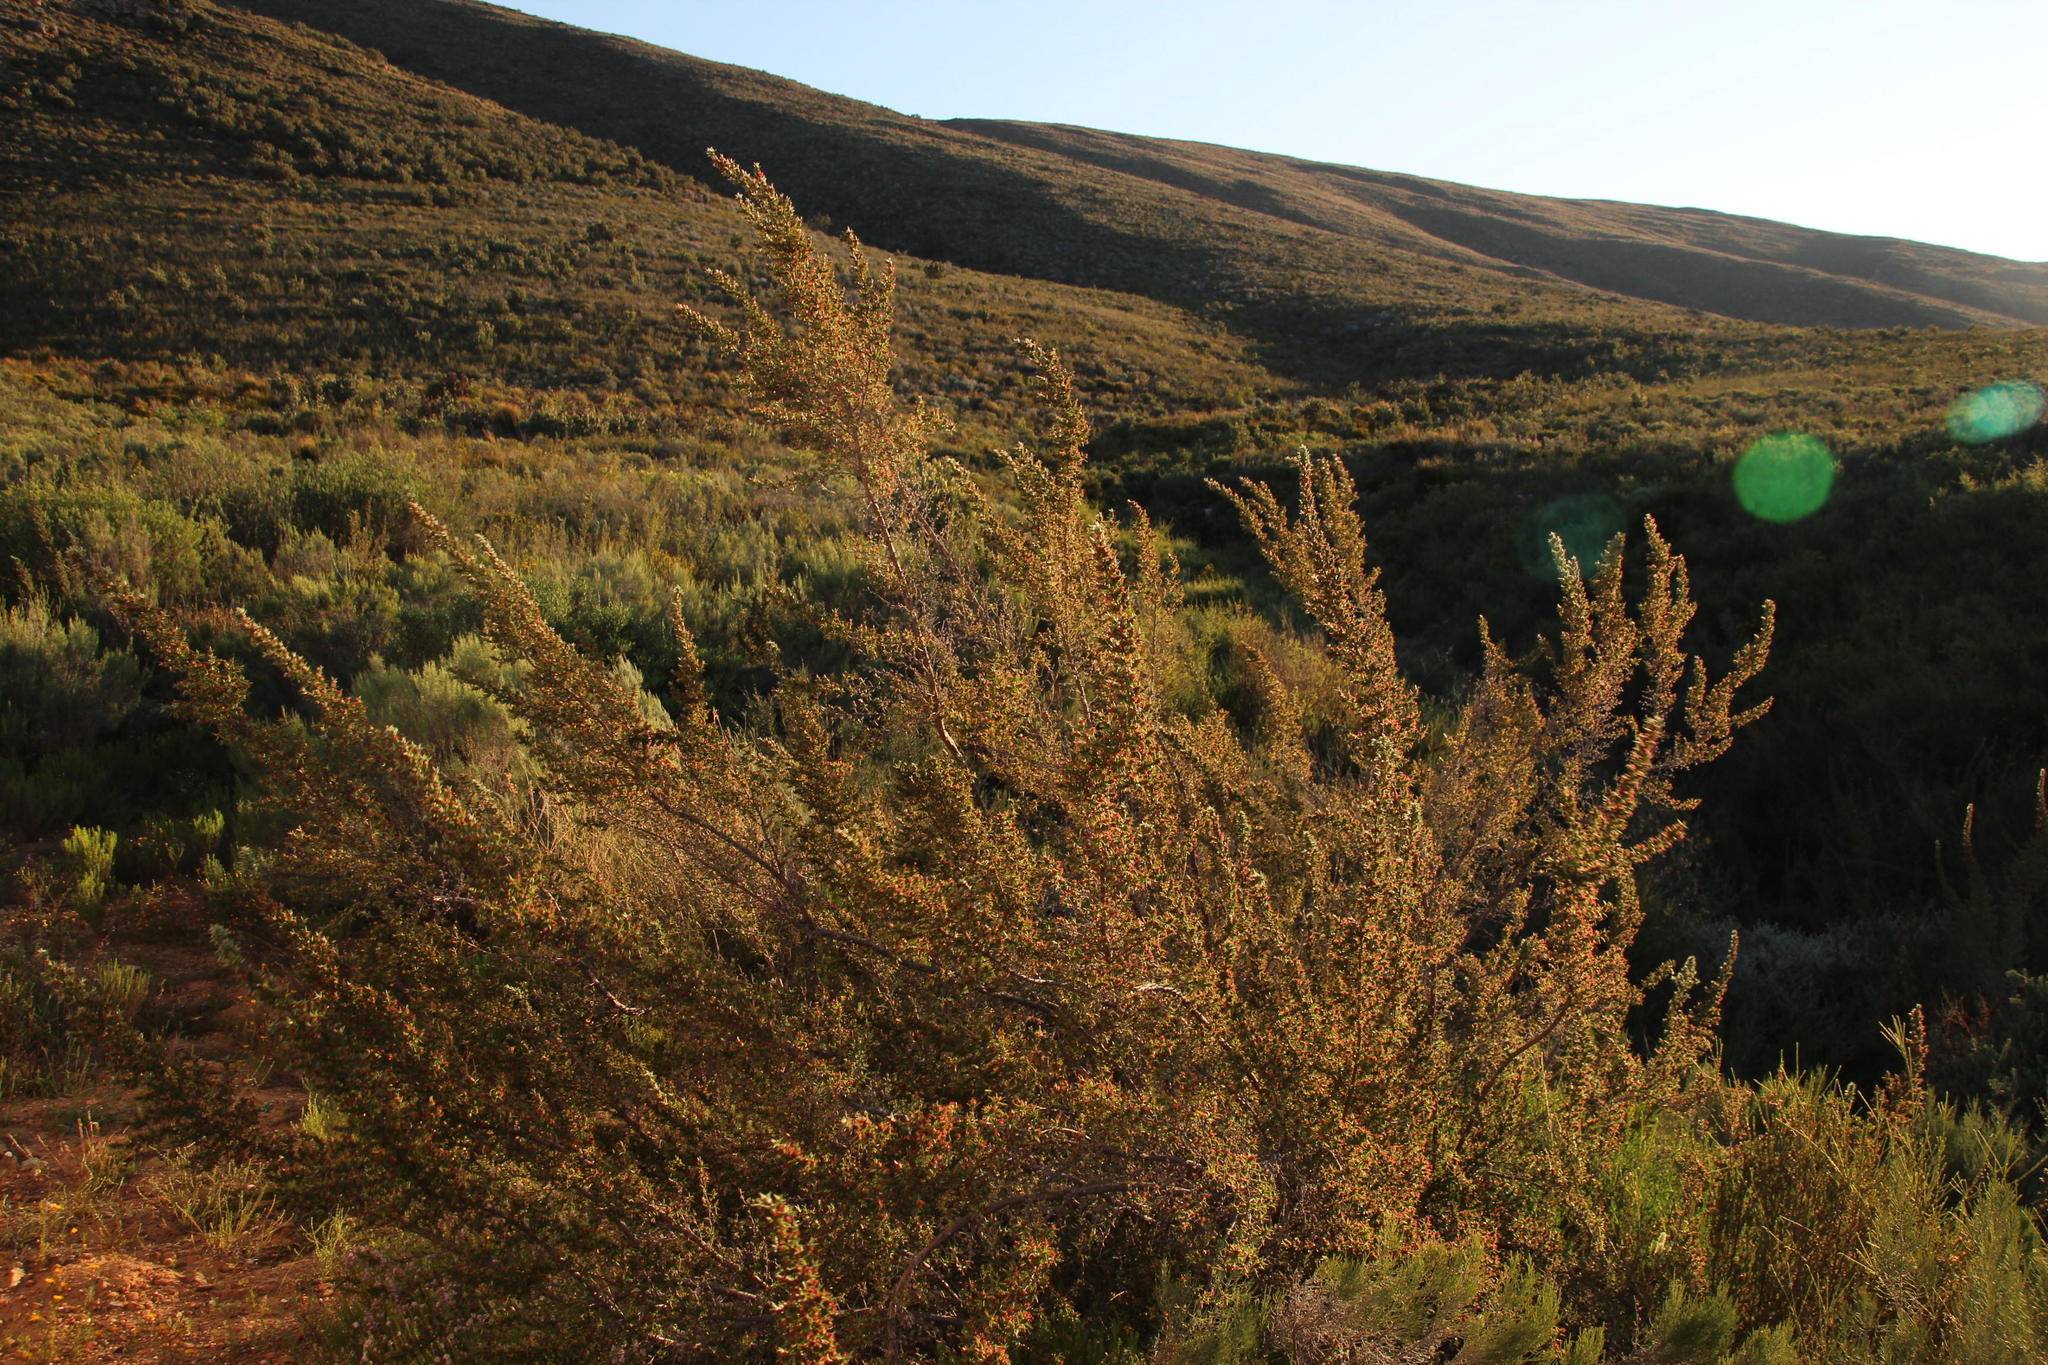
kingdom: Plantae
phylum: Tracheophyta
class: Magnoliopsida
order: Rosales
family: Rosaceae
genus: Cliffortia
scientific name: Cliffortia ruscifolia
